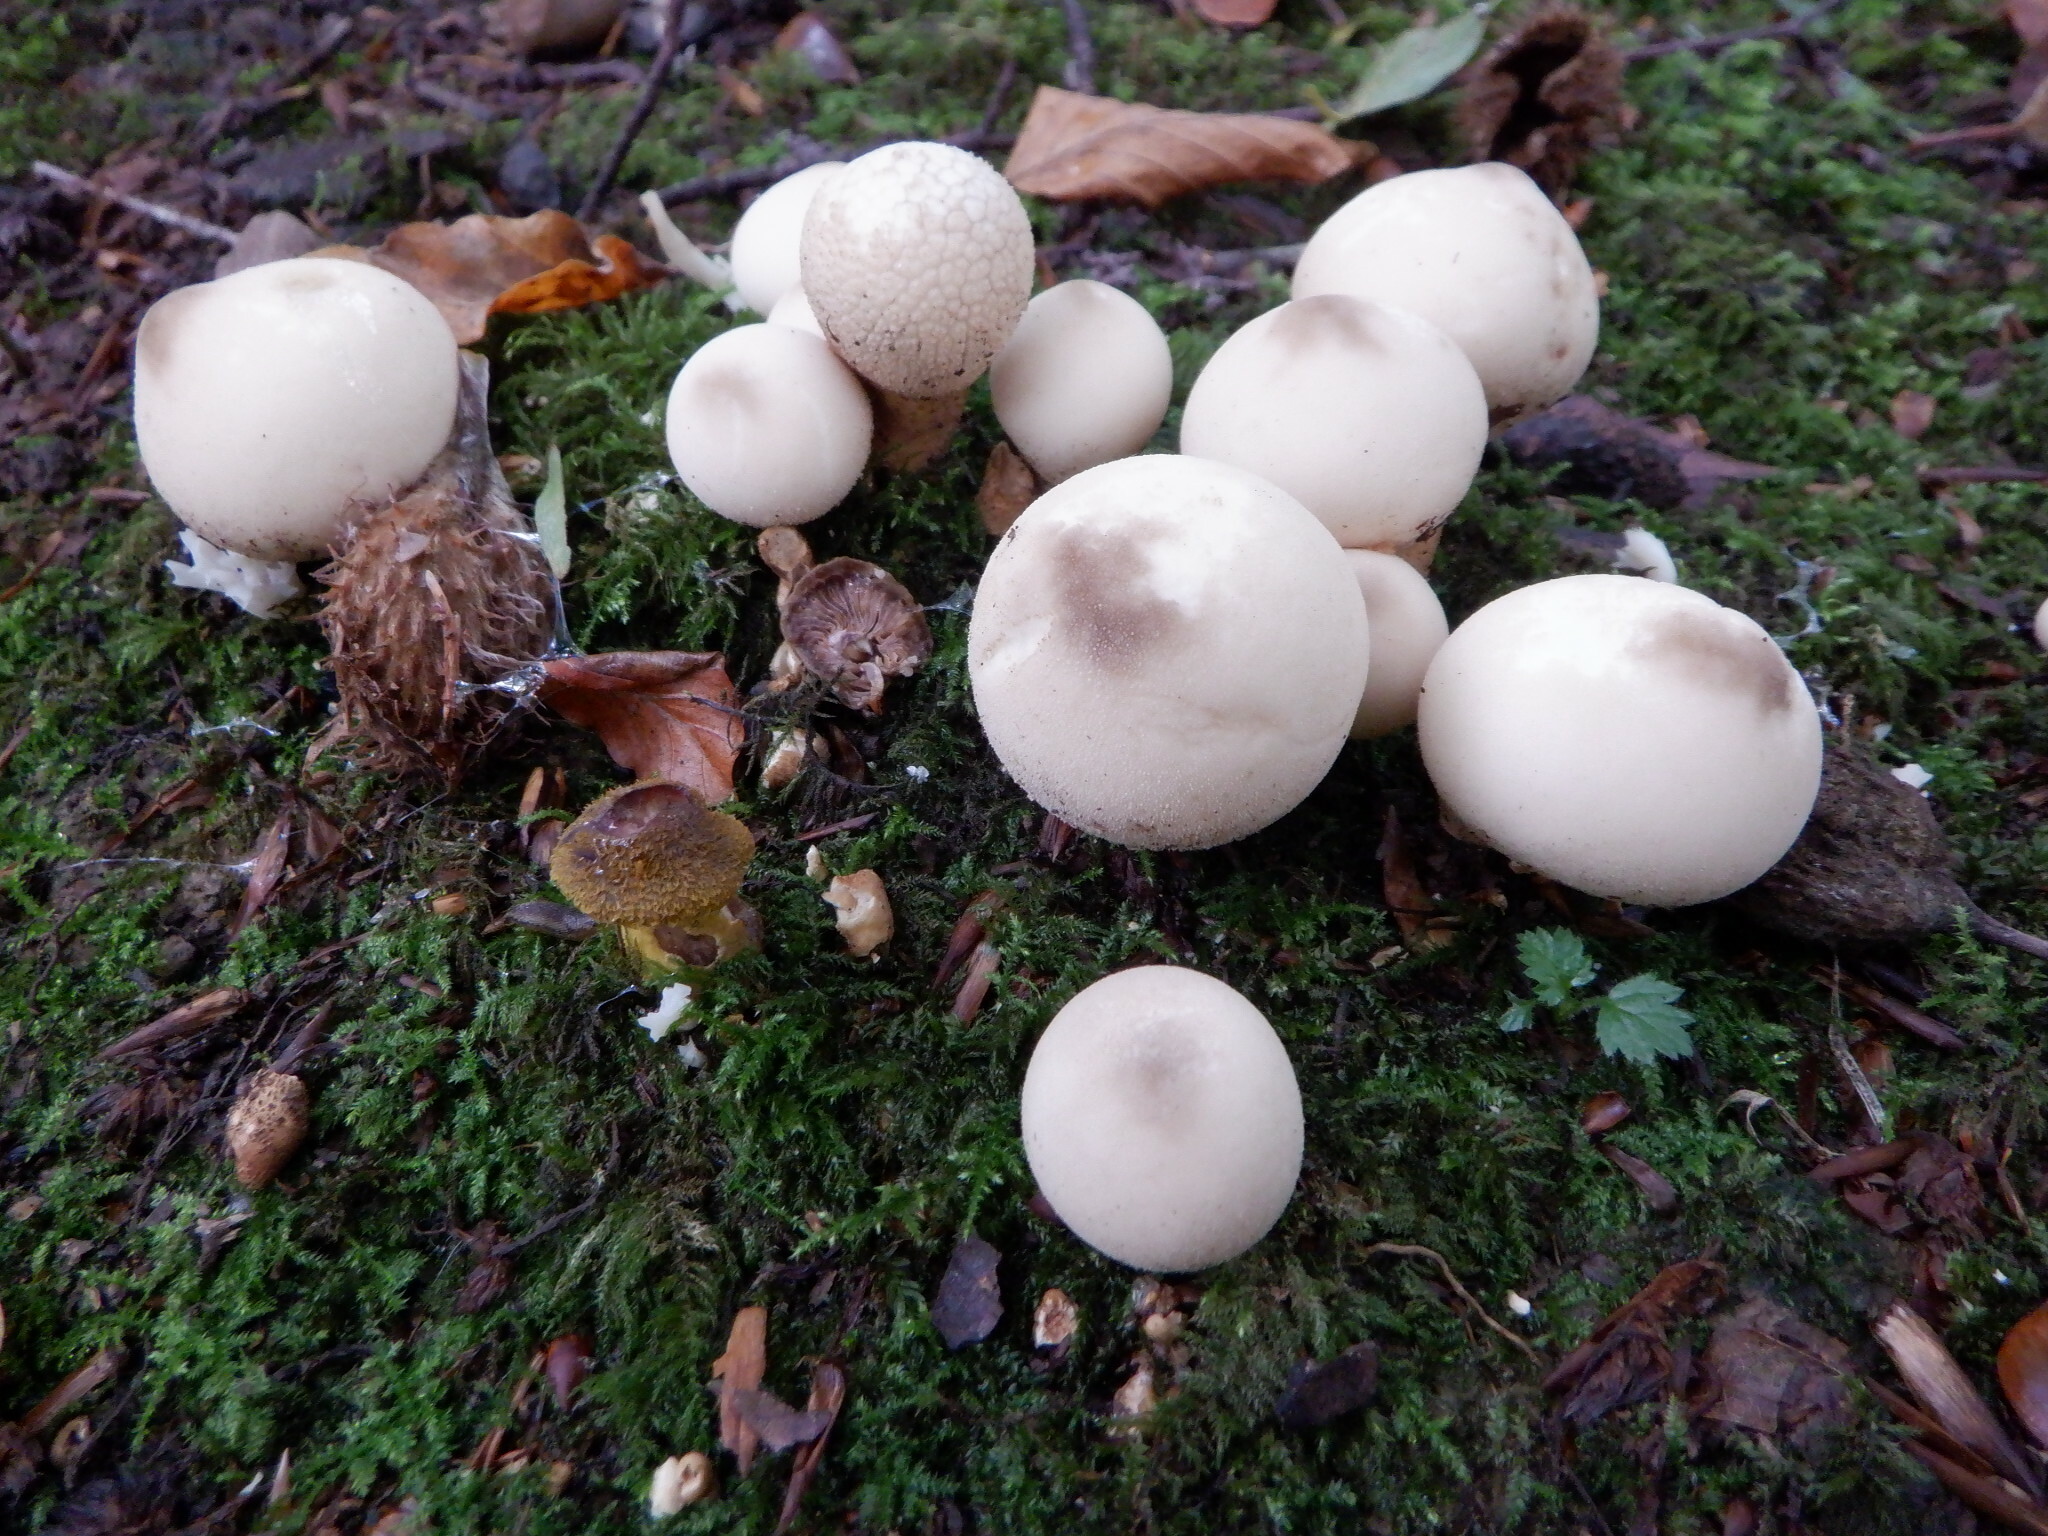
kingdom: Fungi
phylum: Basidiomycota
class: Agaricomycetes
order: Agaricales
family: Lycoperdaceae
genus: Apioperdon
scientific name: Apioperdon pyriforme
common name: Pear-shaped puffball
